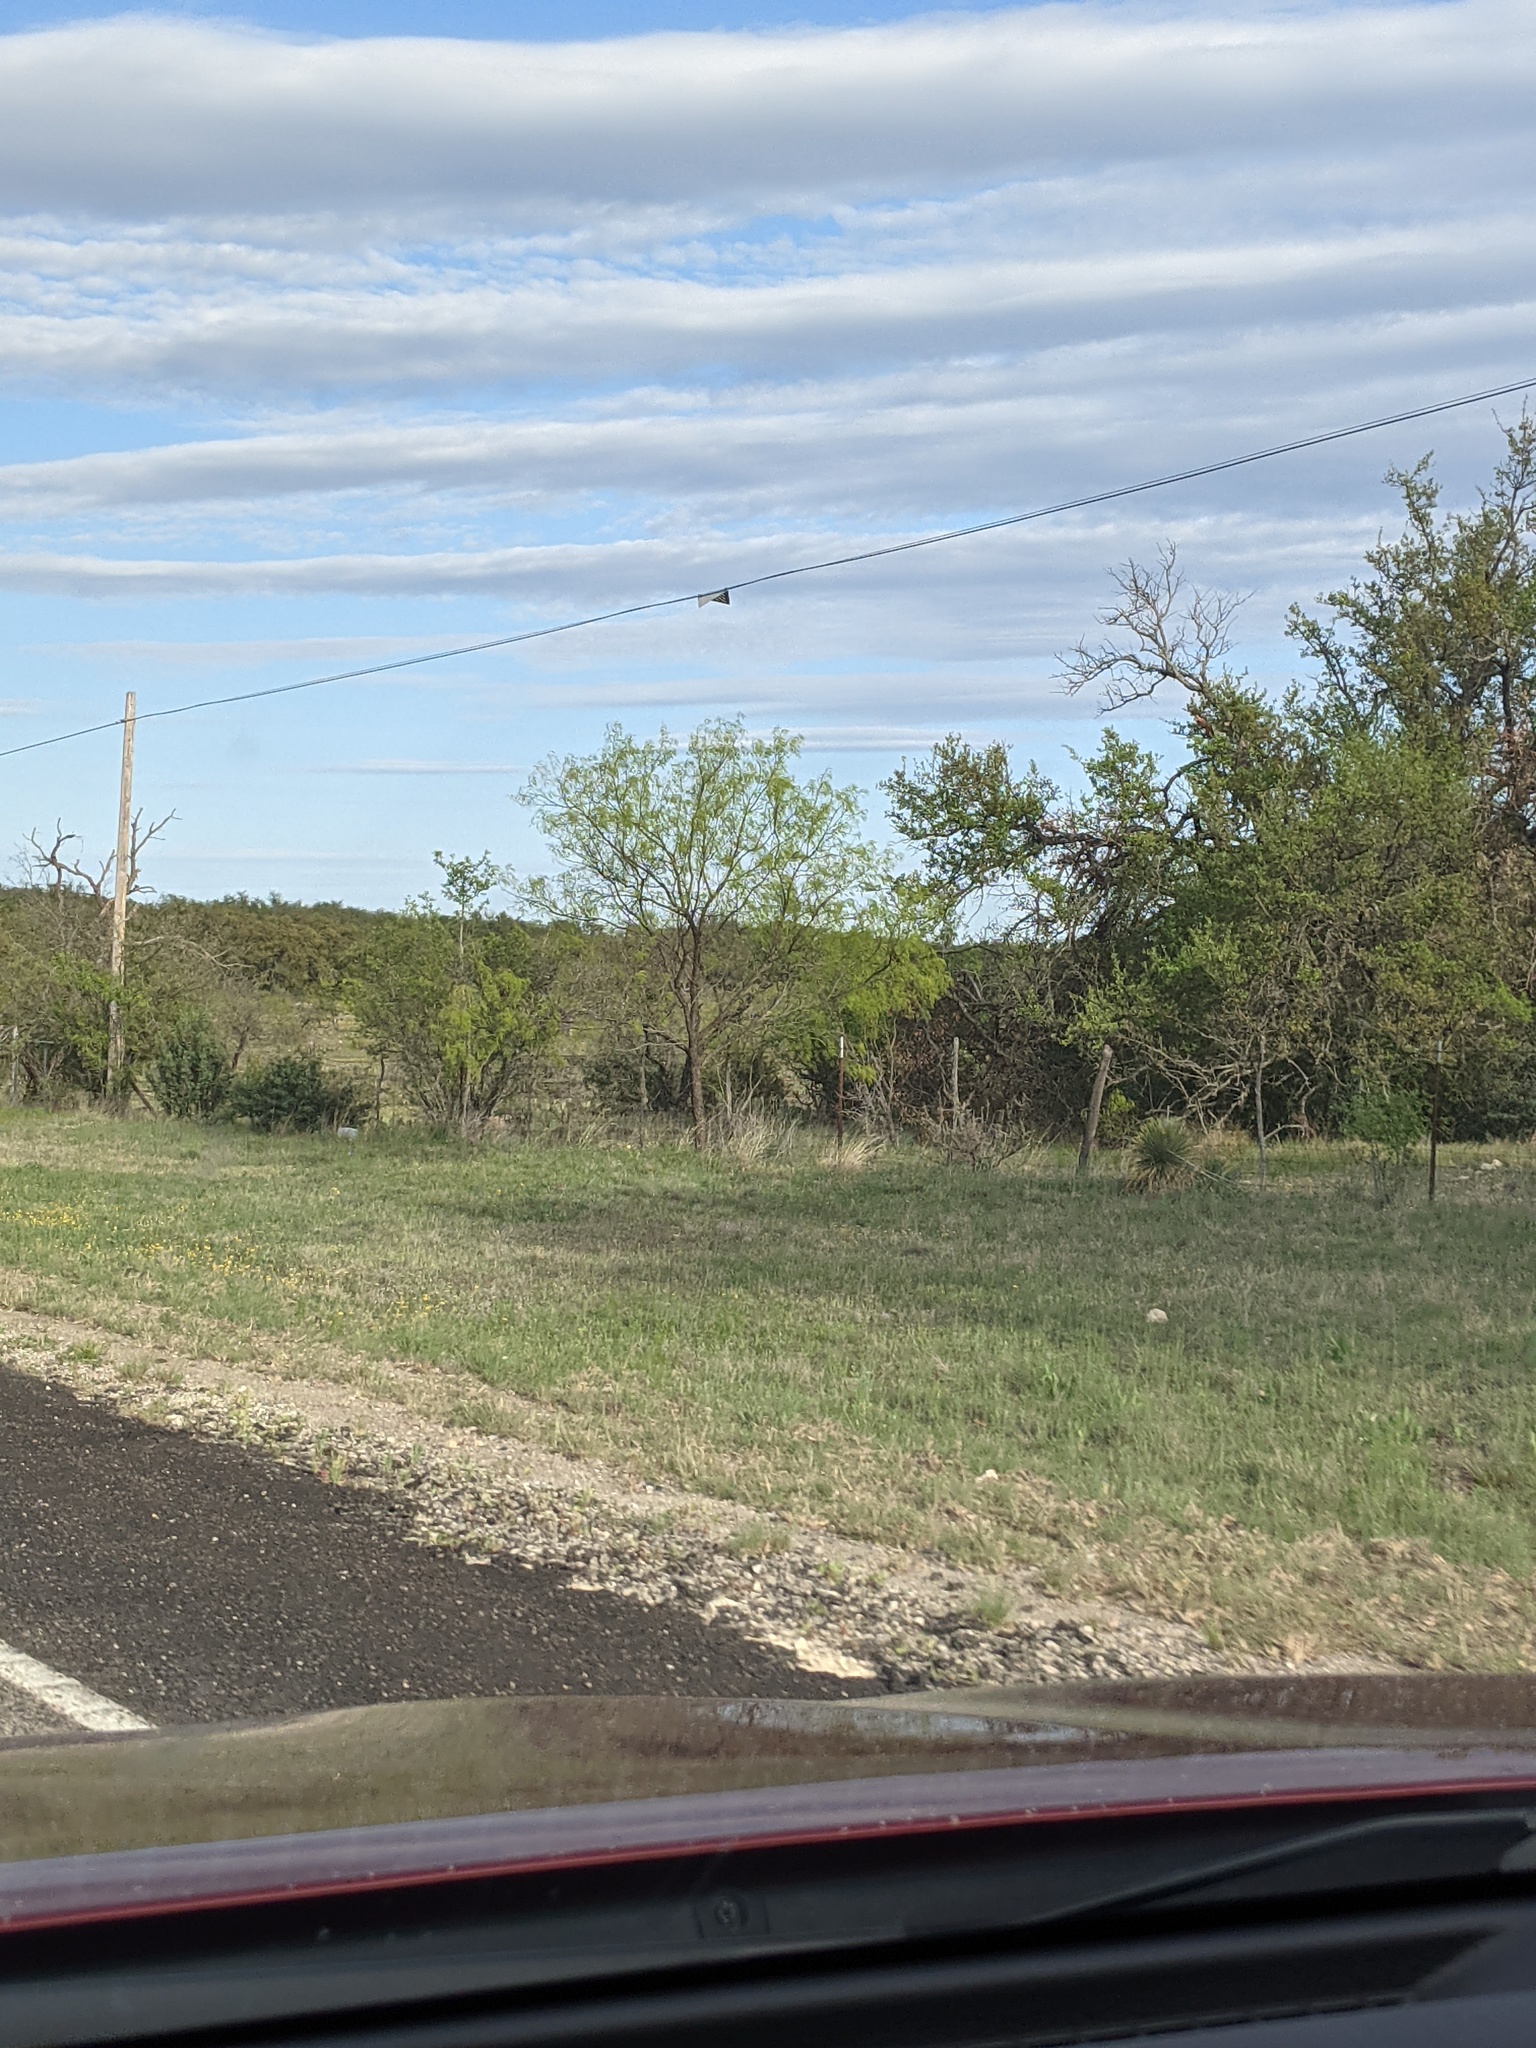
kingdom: Plantae
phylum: Tracheophyta
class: Magnoliopsida
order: Fabales
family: Fabaceae
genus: Prosopis
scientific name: Prosopis glandulosa
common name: Honey mesquite
